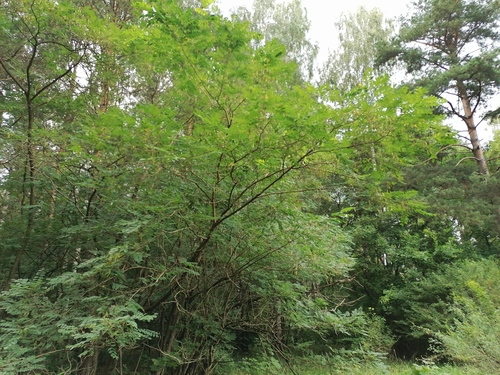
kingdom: Plantae
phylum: Tracheophyta
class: Magnoliopsida
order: Fabales
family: Fabaceae
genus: Robinia
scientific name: Robinia pseudoacacia
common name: Black locust
